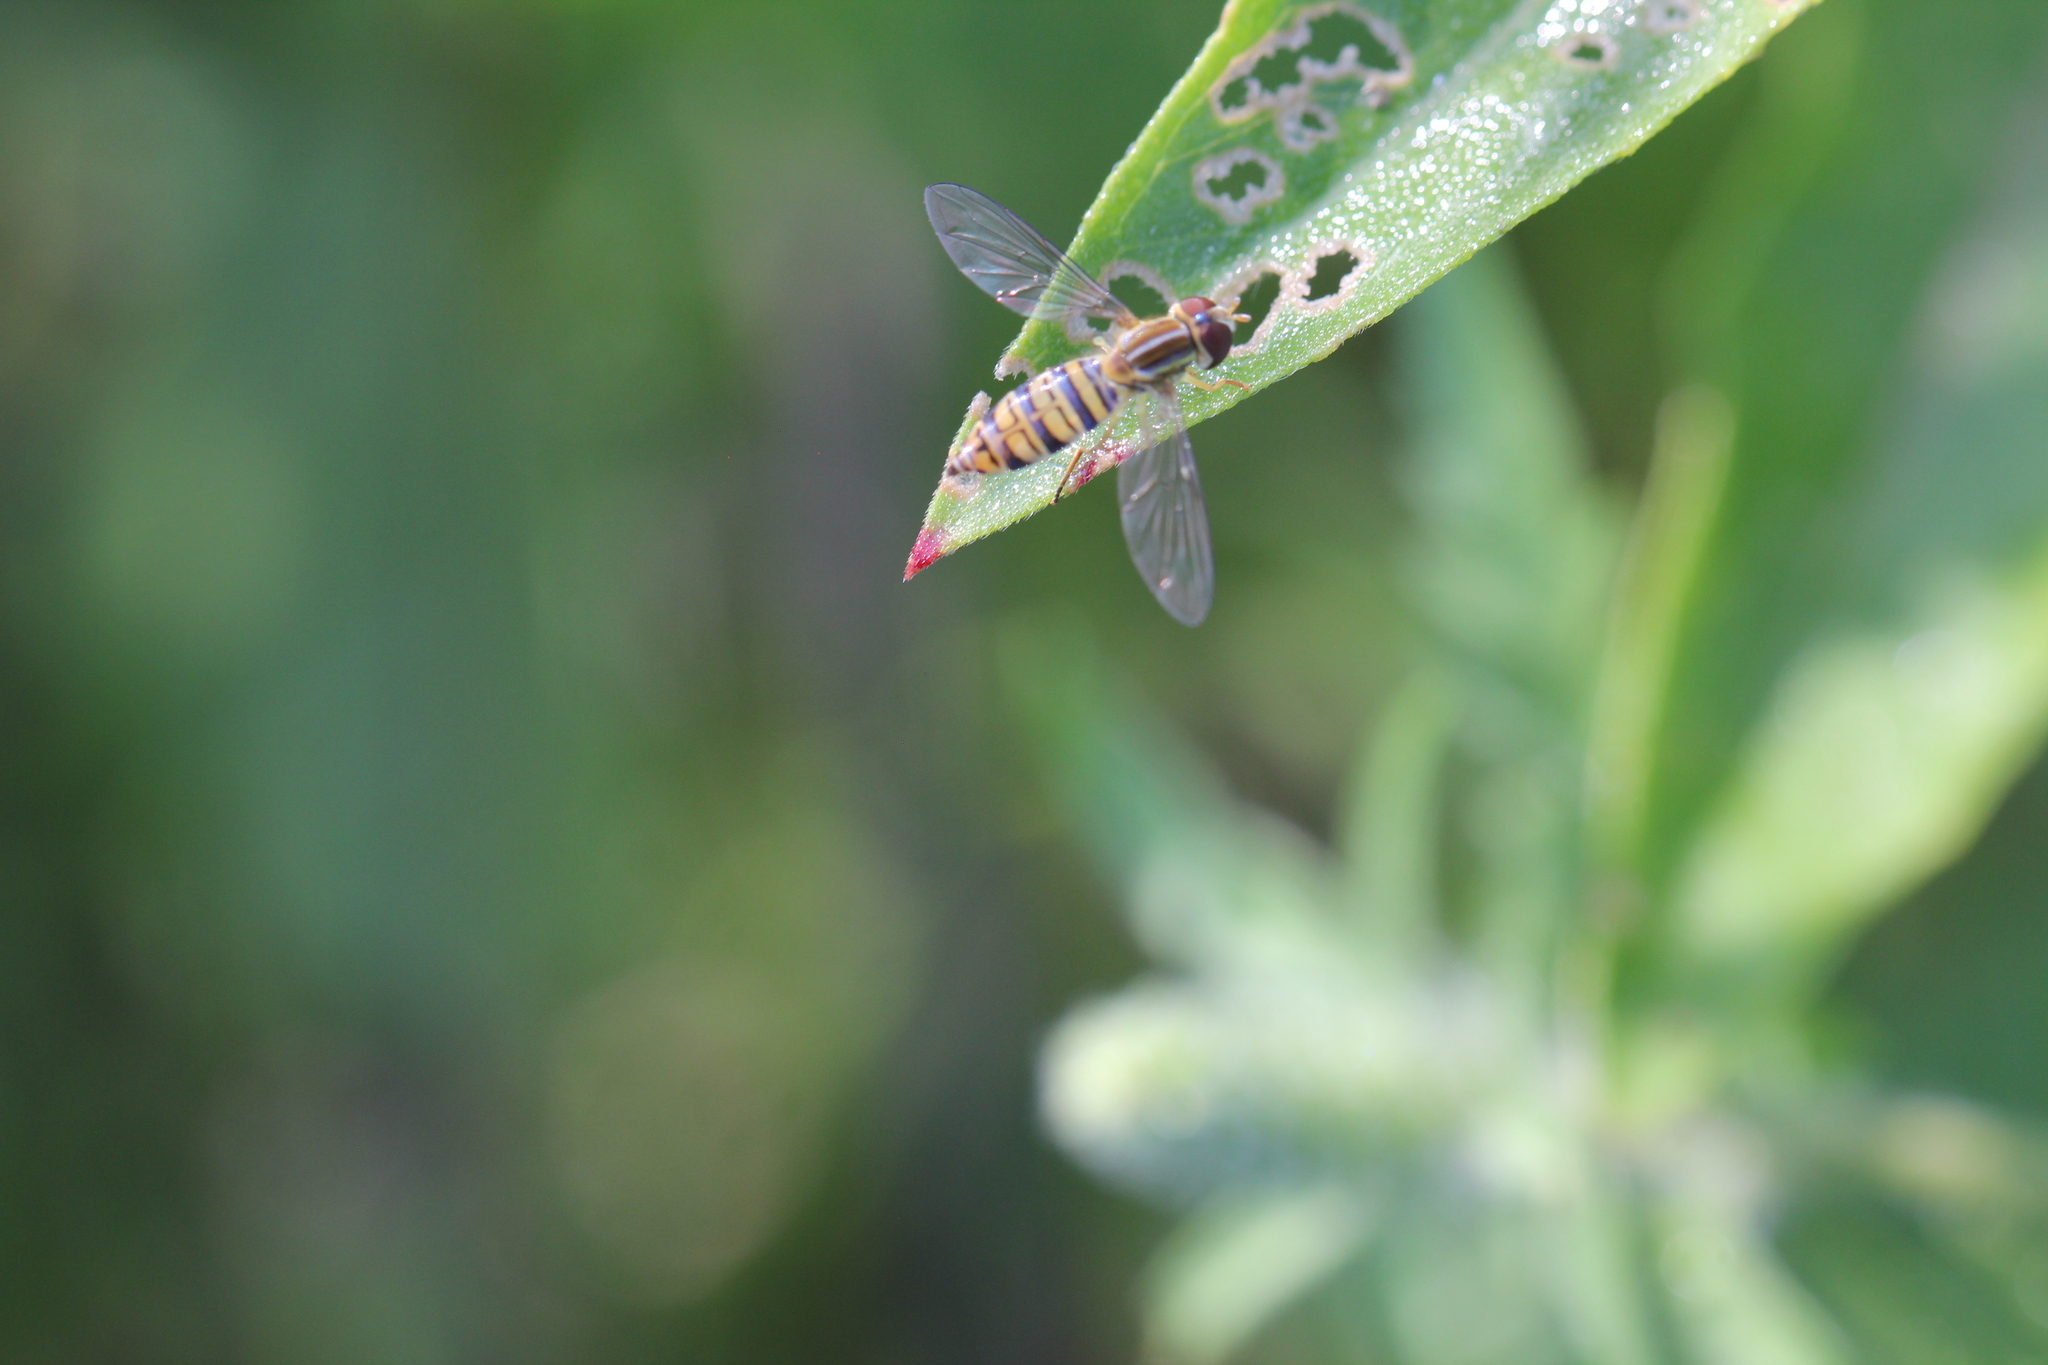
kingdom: Animalia
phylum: Arthropoda
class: Insecta
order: Diptera
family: Syrphidae
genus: Toxomerus
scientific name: Toxomerus politus
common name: Maize calligrapher
